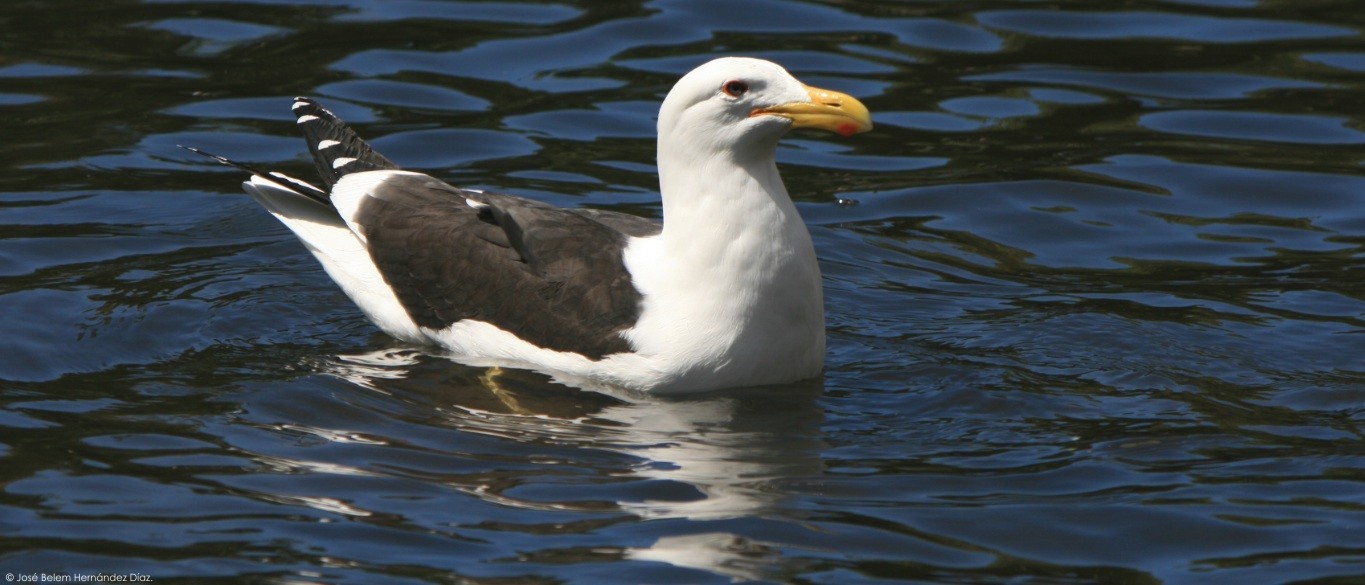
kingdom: Animalia
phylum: Chordata
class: Aves
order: Charadriiformes
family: Laridae
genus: Larus
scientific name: Larus dominicanus
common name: Kelp gull
